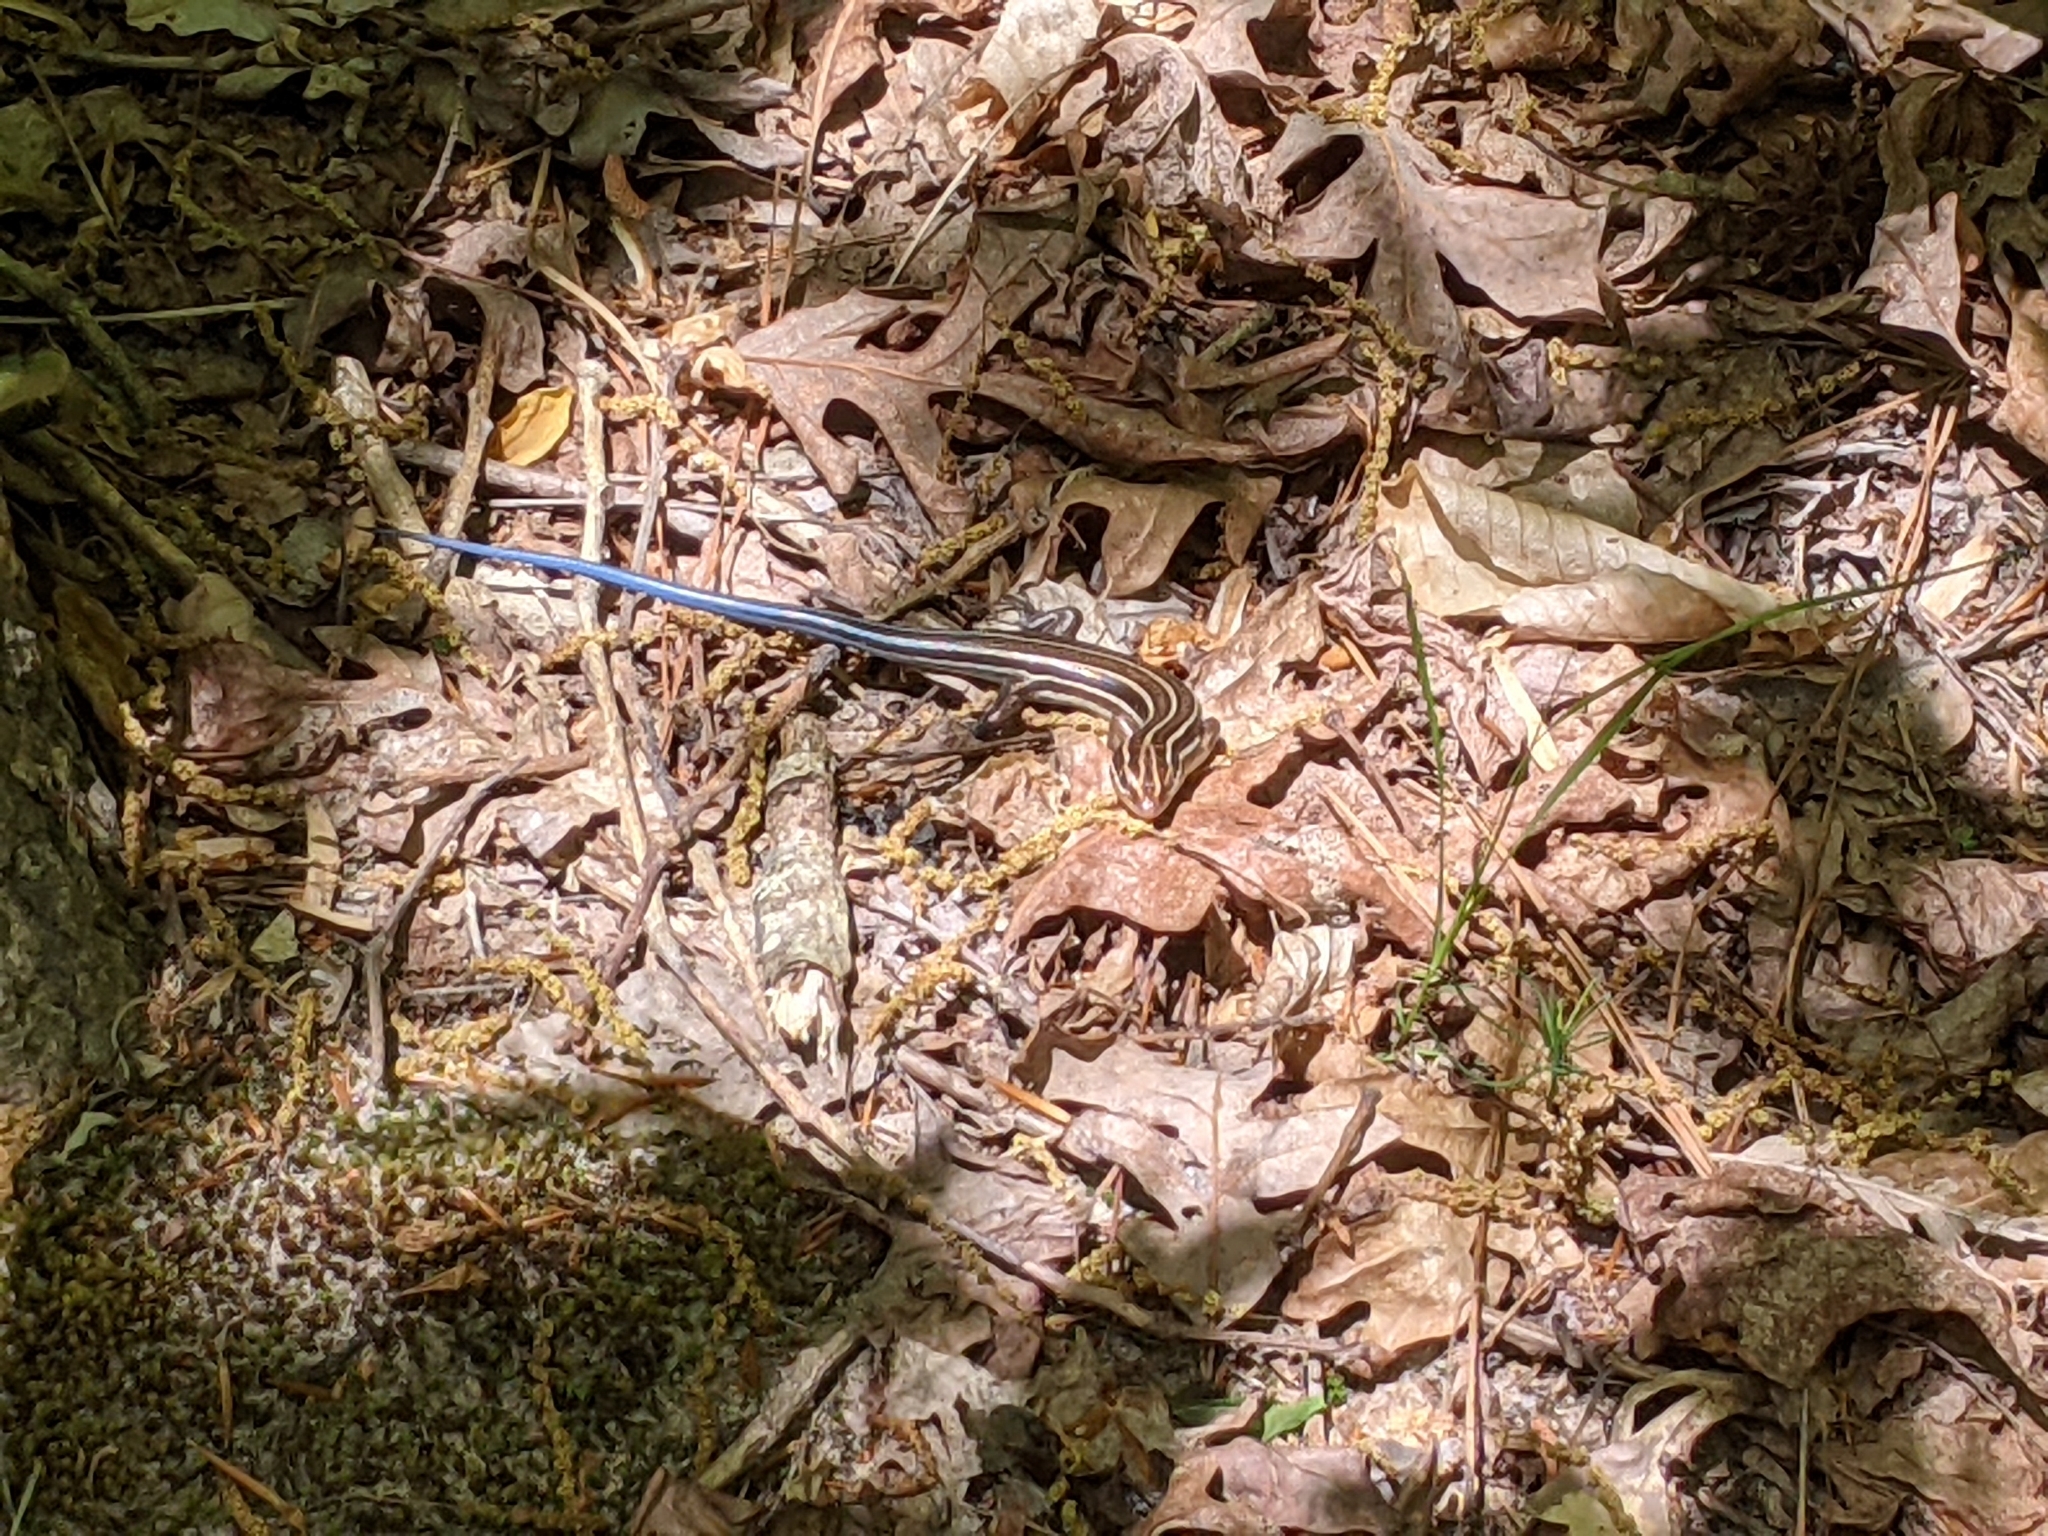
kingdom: Animalia
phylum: Chordata
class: Squamata
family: Scincidae
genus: Plestiodon
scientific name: Plestiodon laticeps
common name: Broadhead skink
